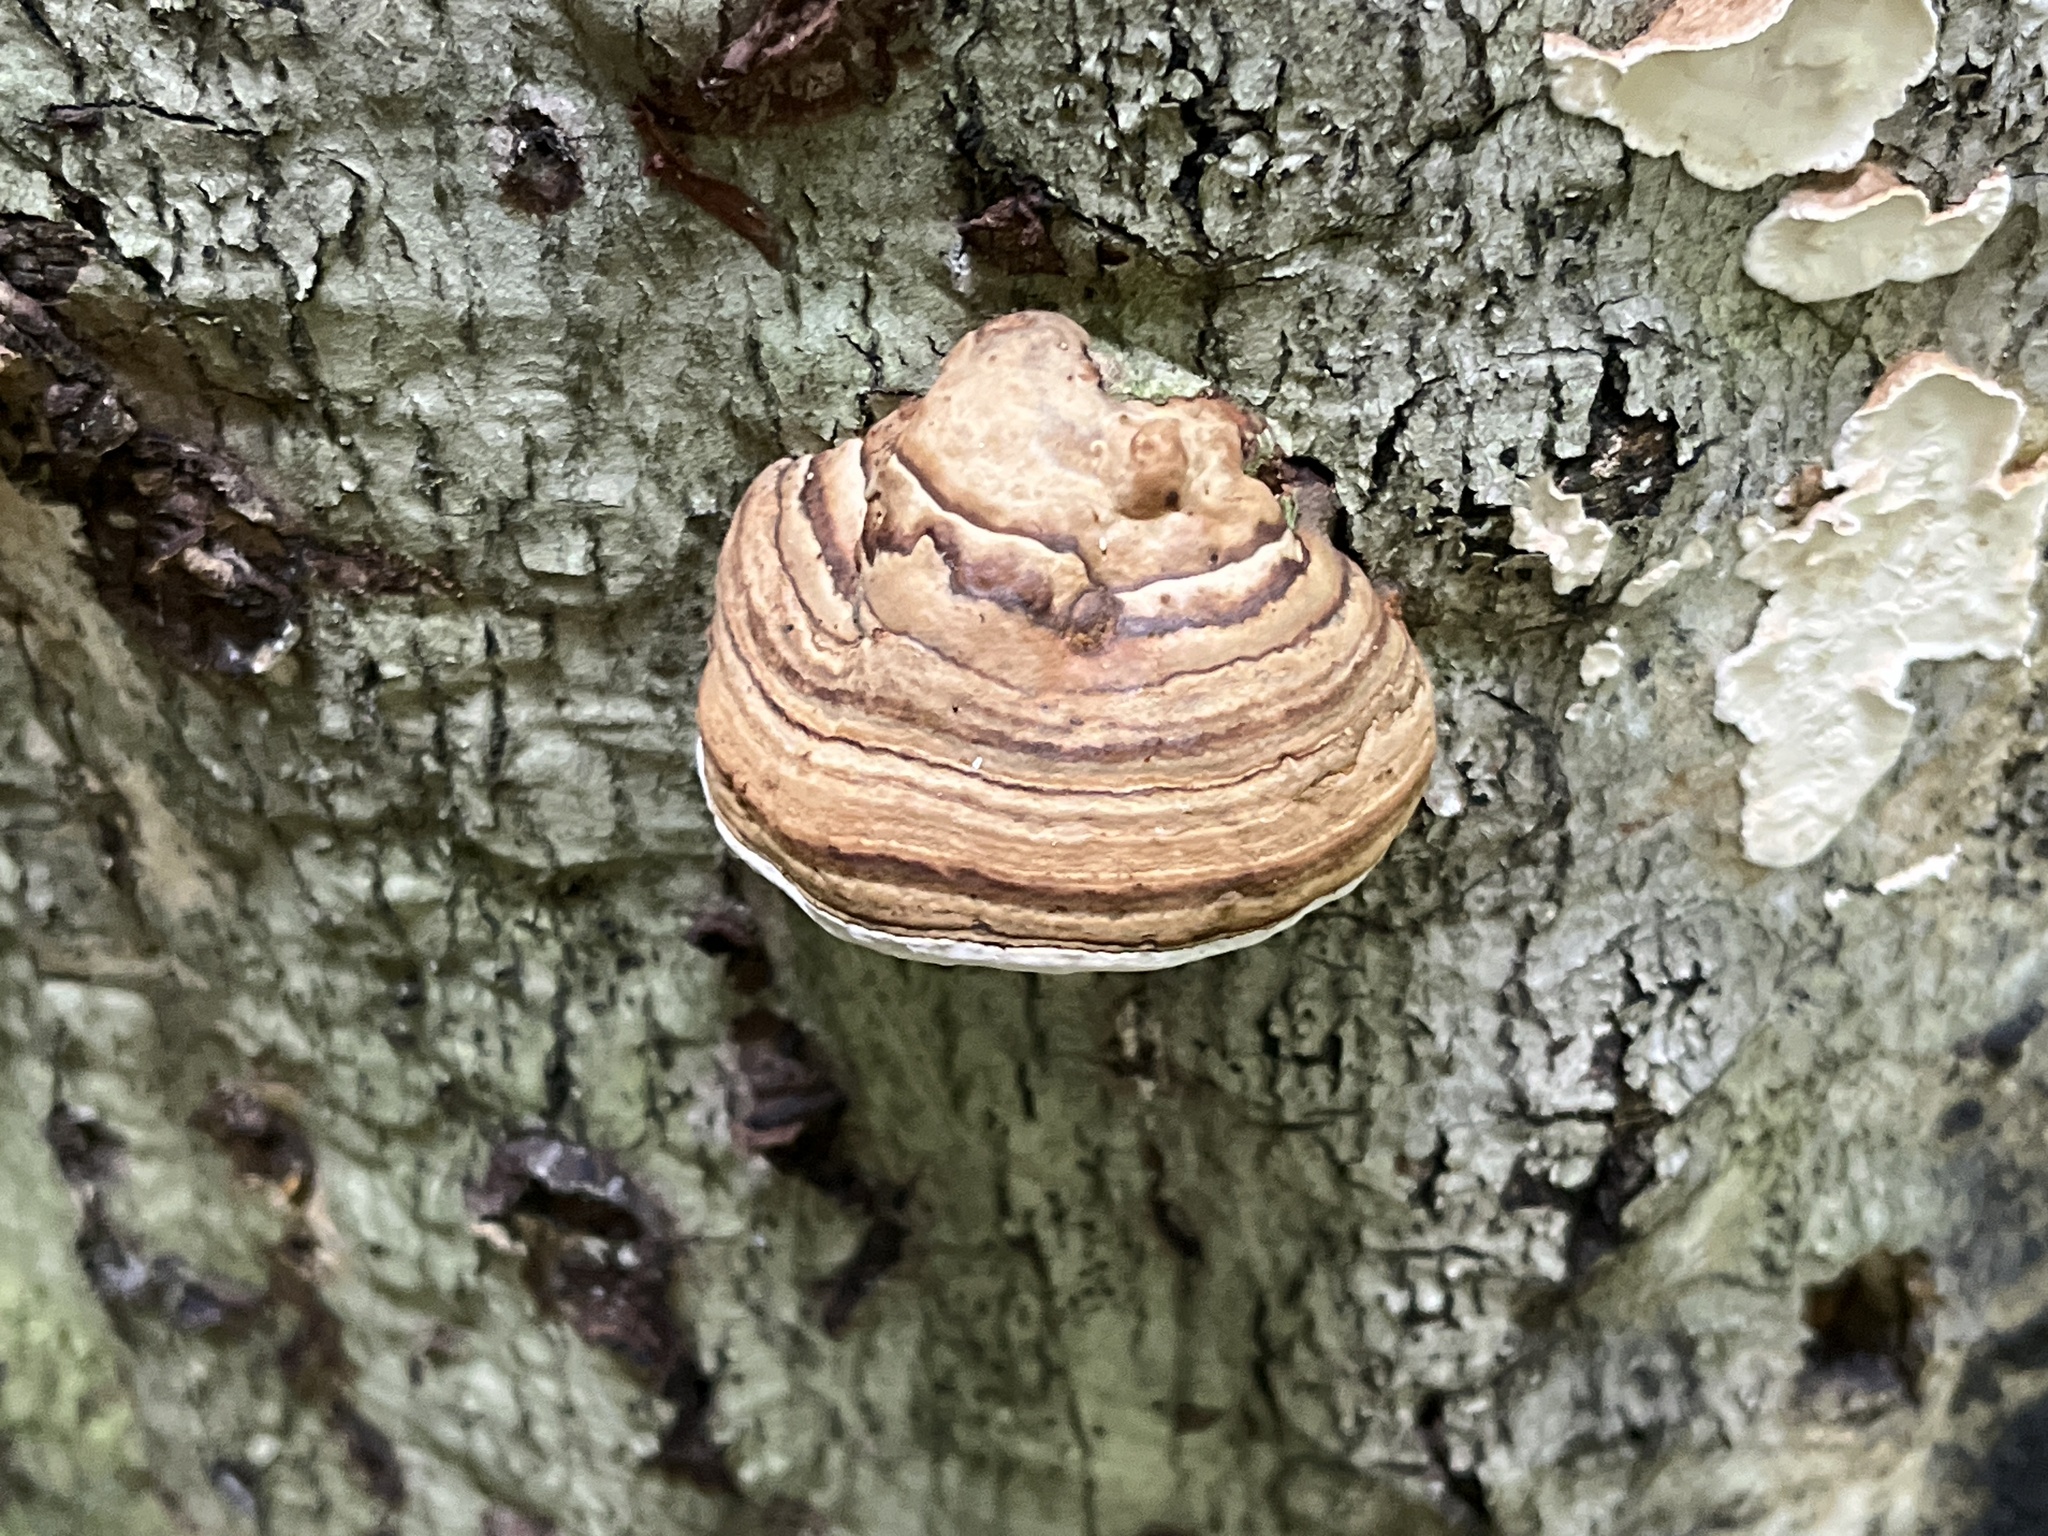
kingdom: Fungi
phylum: Basidiomycota
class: Agaricomycetes
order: Polyporales
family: Polyporaceae
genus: Fomes
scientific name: Fomes fomentarius
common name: Hoof fungus
